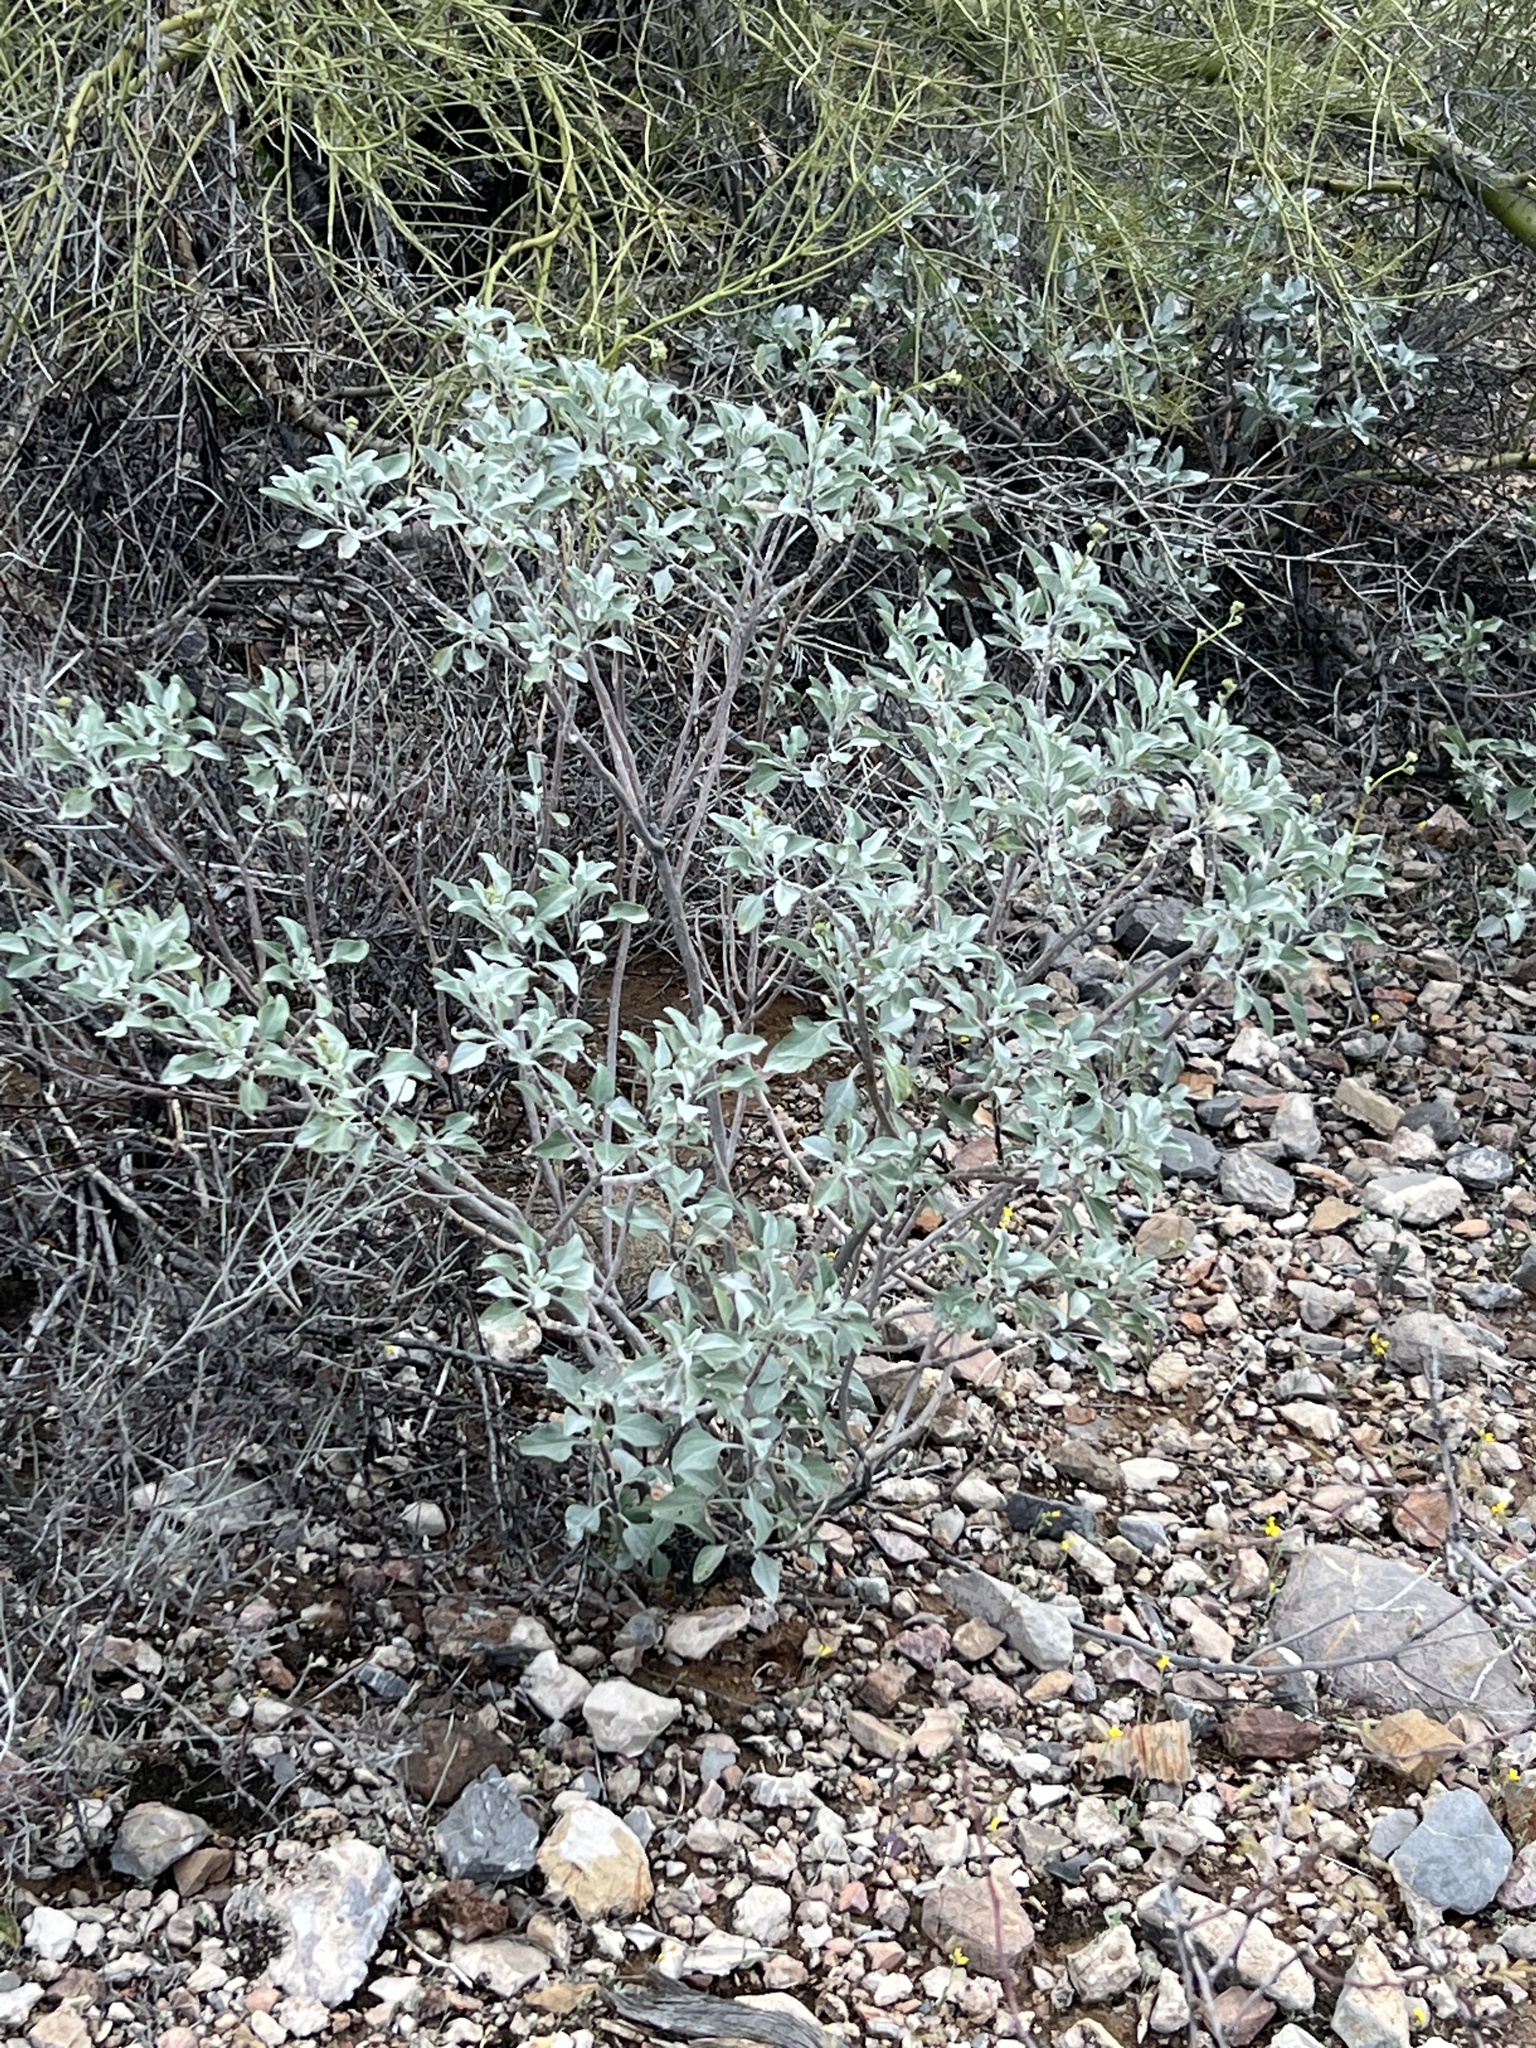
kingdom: Plantae
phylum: Tracheophyta
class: Magnoliopsida
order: Asterales
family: Asteraceae
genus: Encelia
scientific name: Encelia farinosa
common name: Brittlebush
